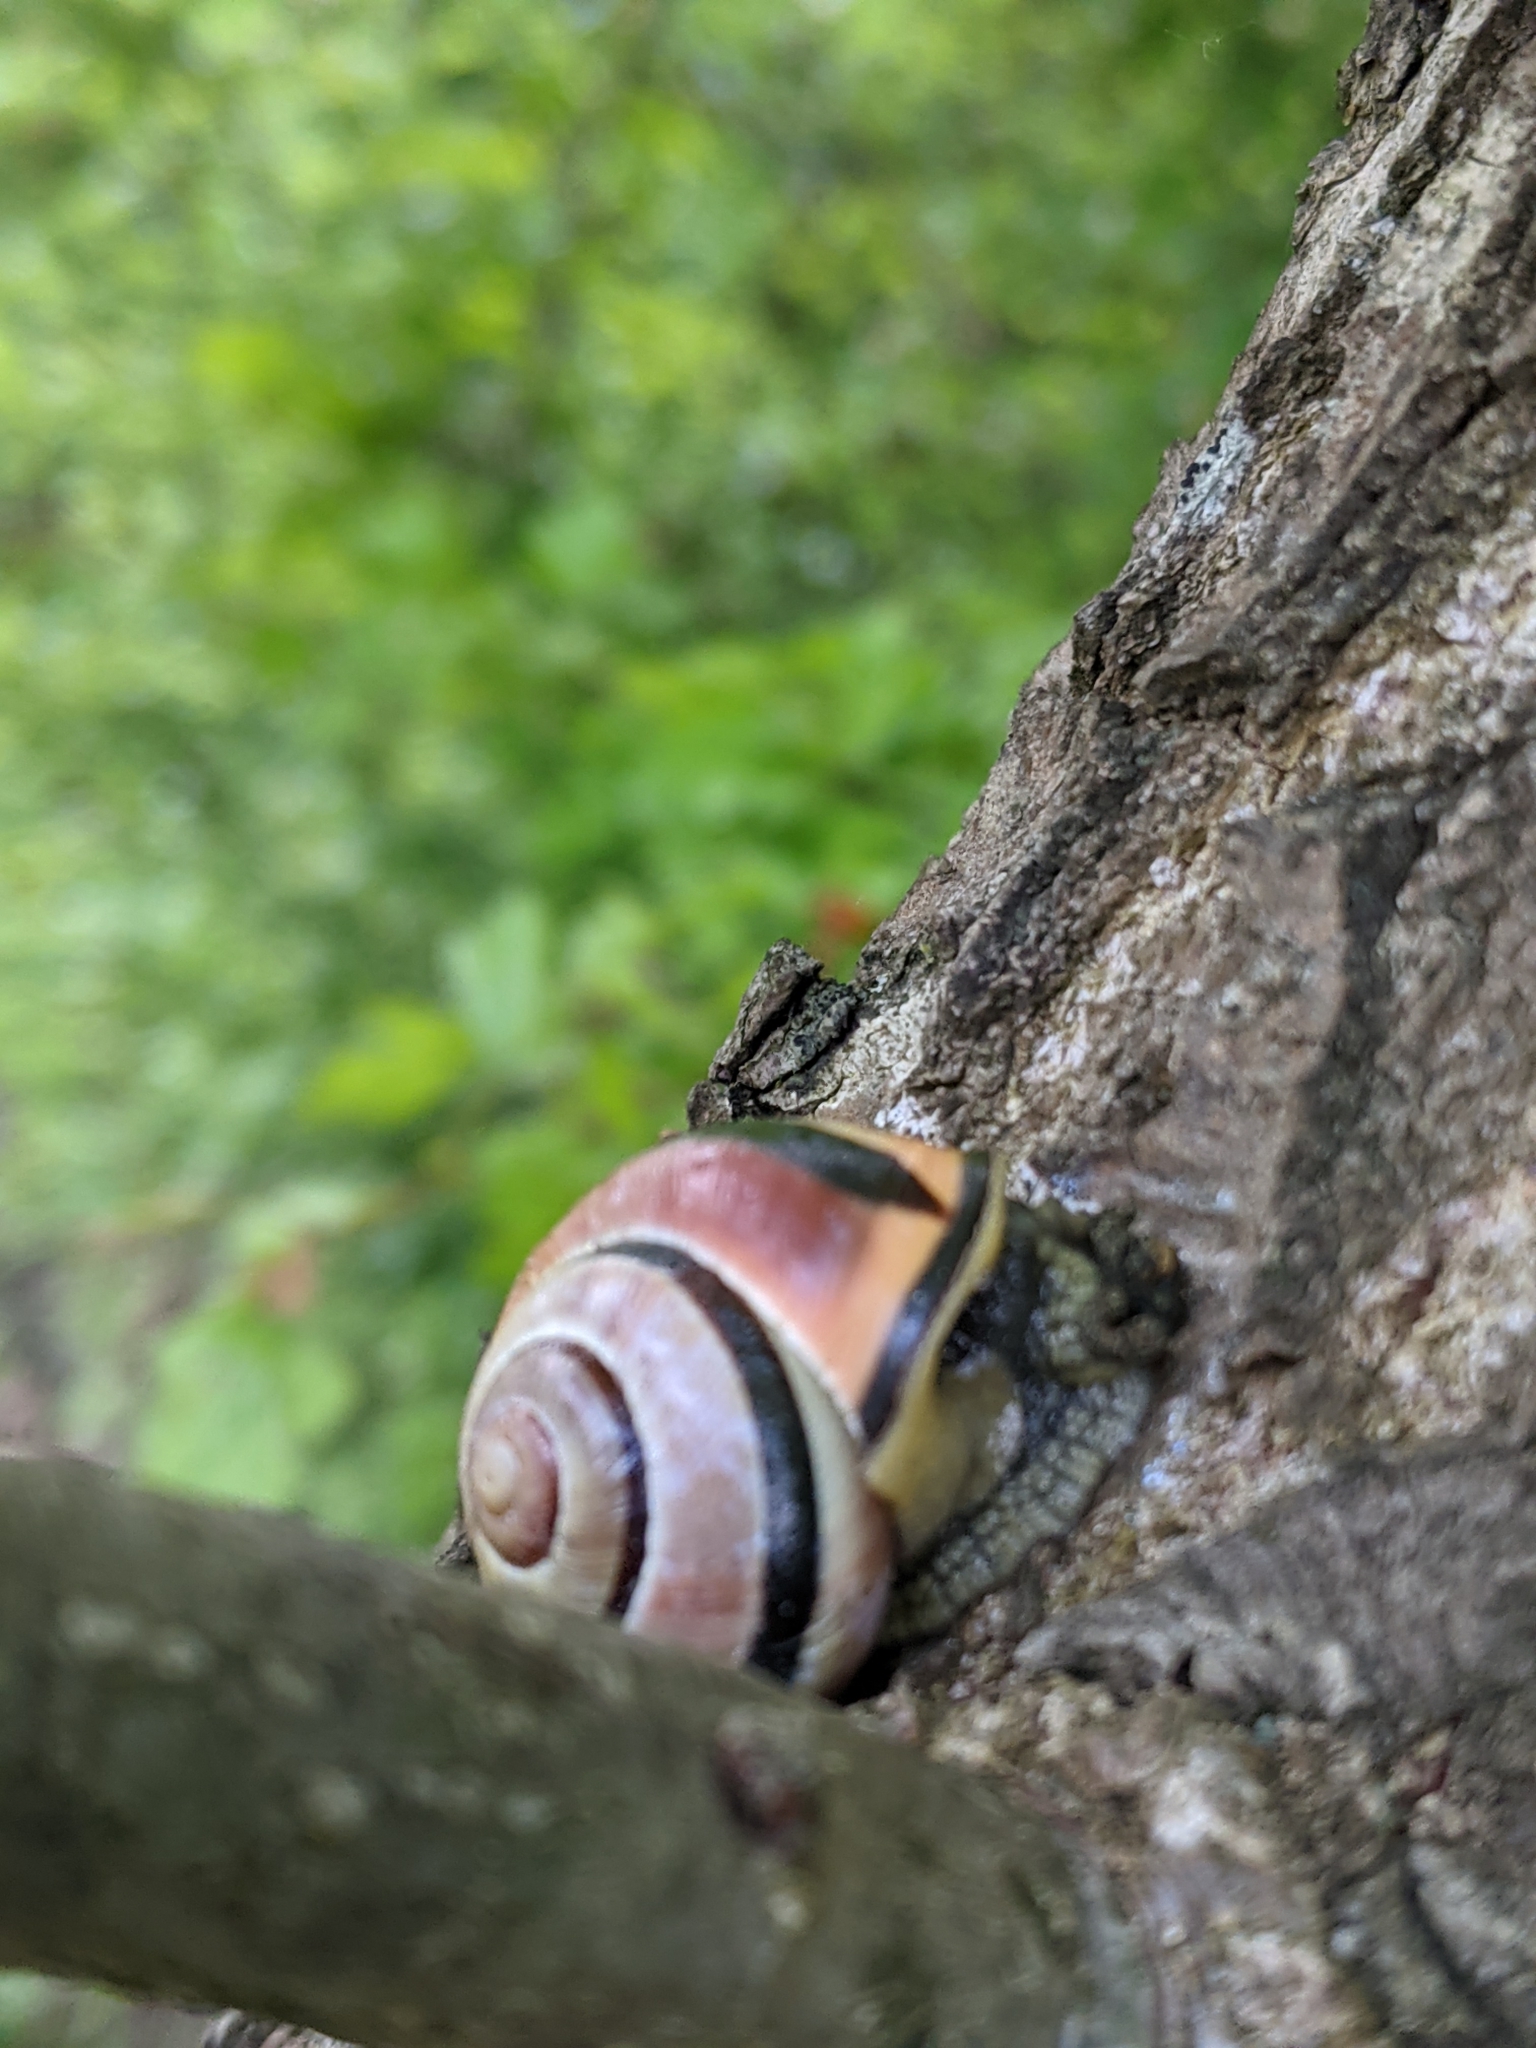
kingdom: Animalia
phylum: Mollusca
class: Gastropoda
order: Stylommatophora
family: Helicidae
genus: Cepaea
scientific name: Cepaea nemoralis
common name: Grovesnail
